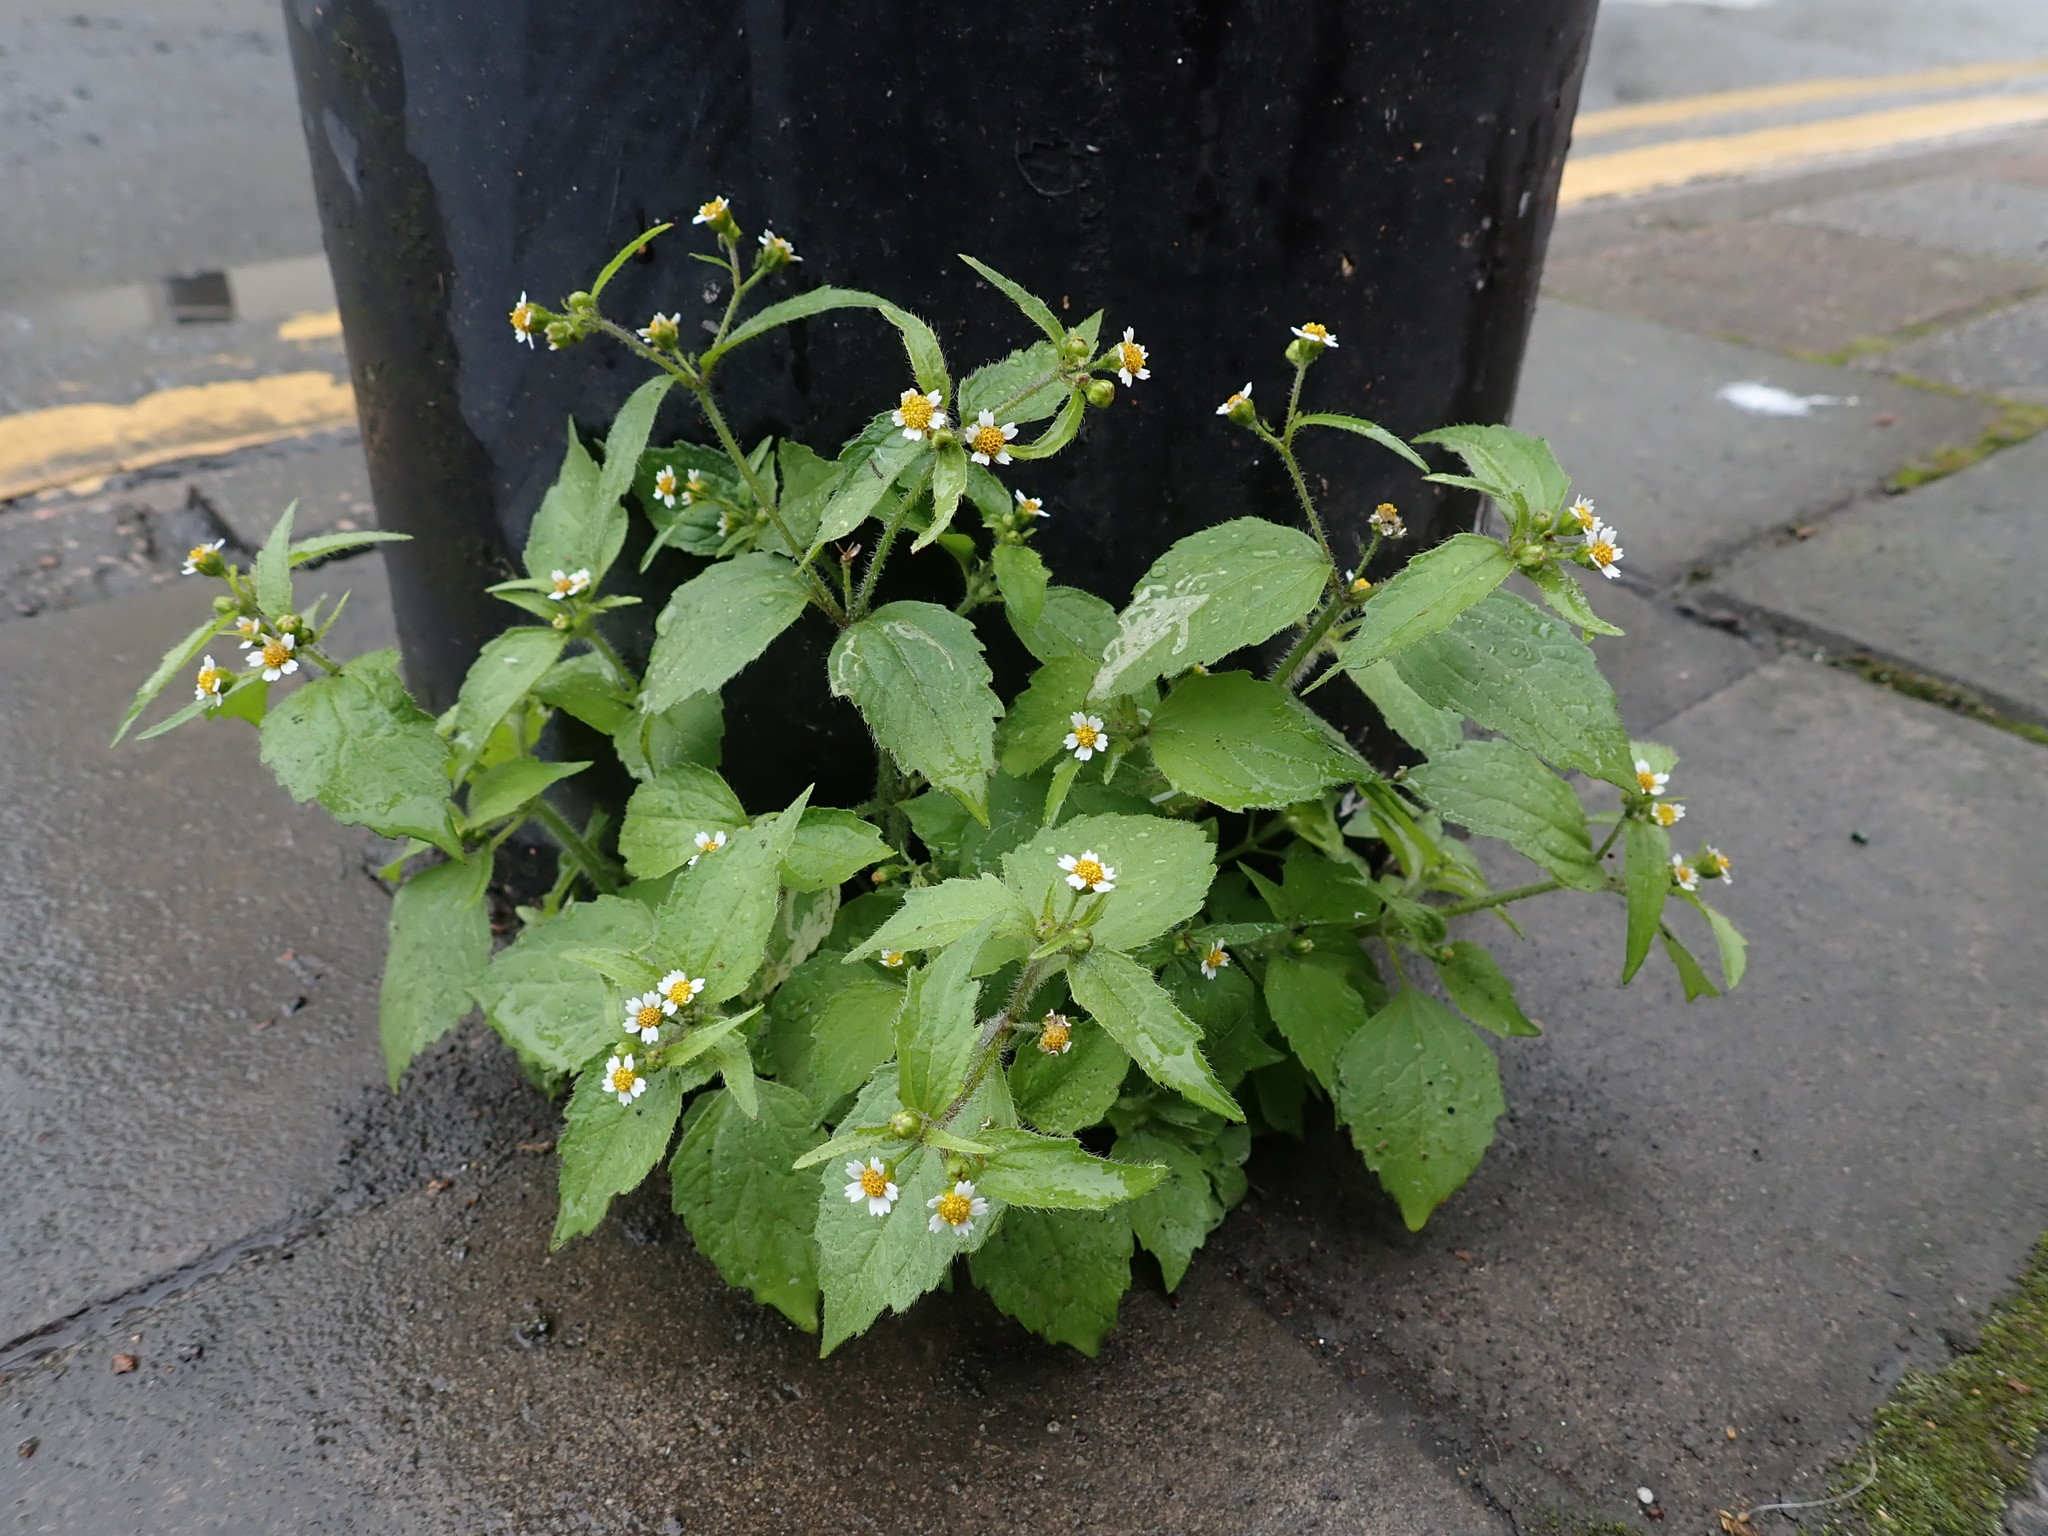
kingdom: Plantae
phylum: Tracheophyta
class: Magnoliopsida
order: Asterales
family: Asteraceae
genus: Galinsoga
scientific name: Galinsoga quadriradiata
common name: Shaggy soldier
